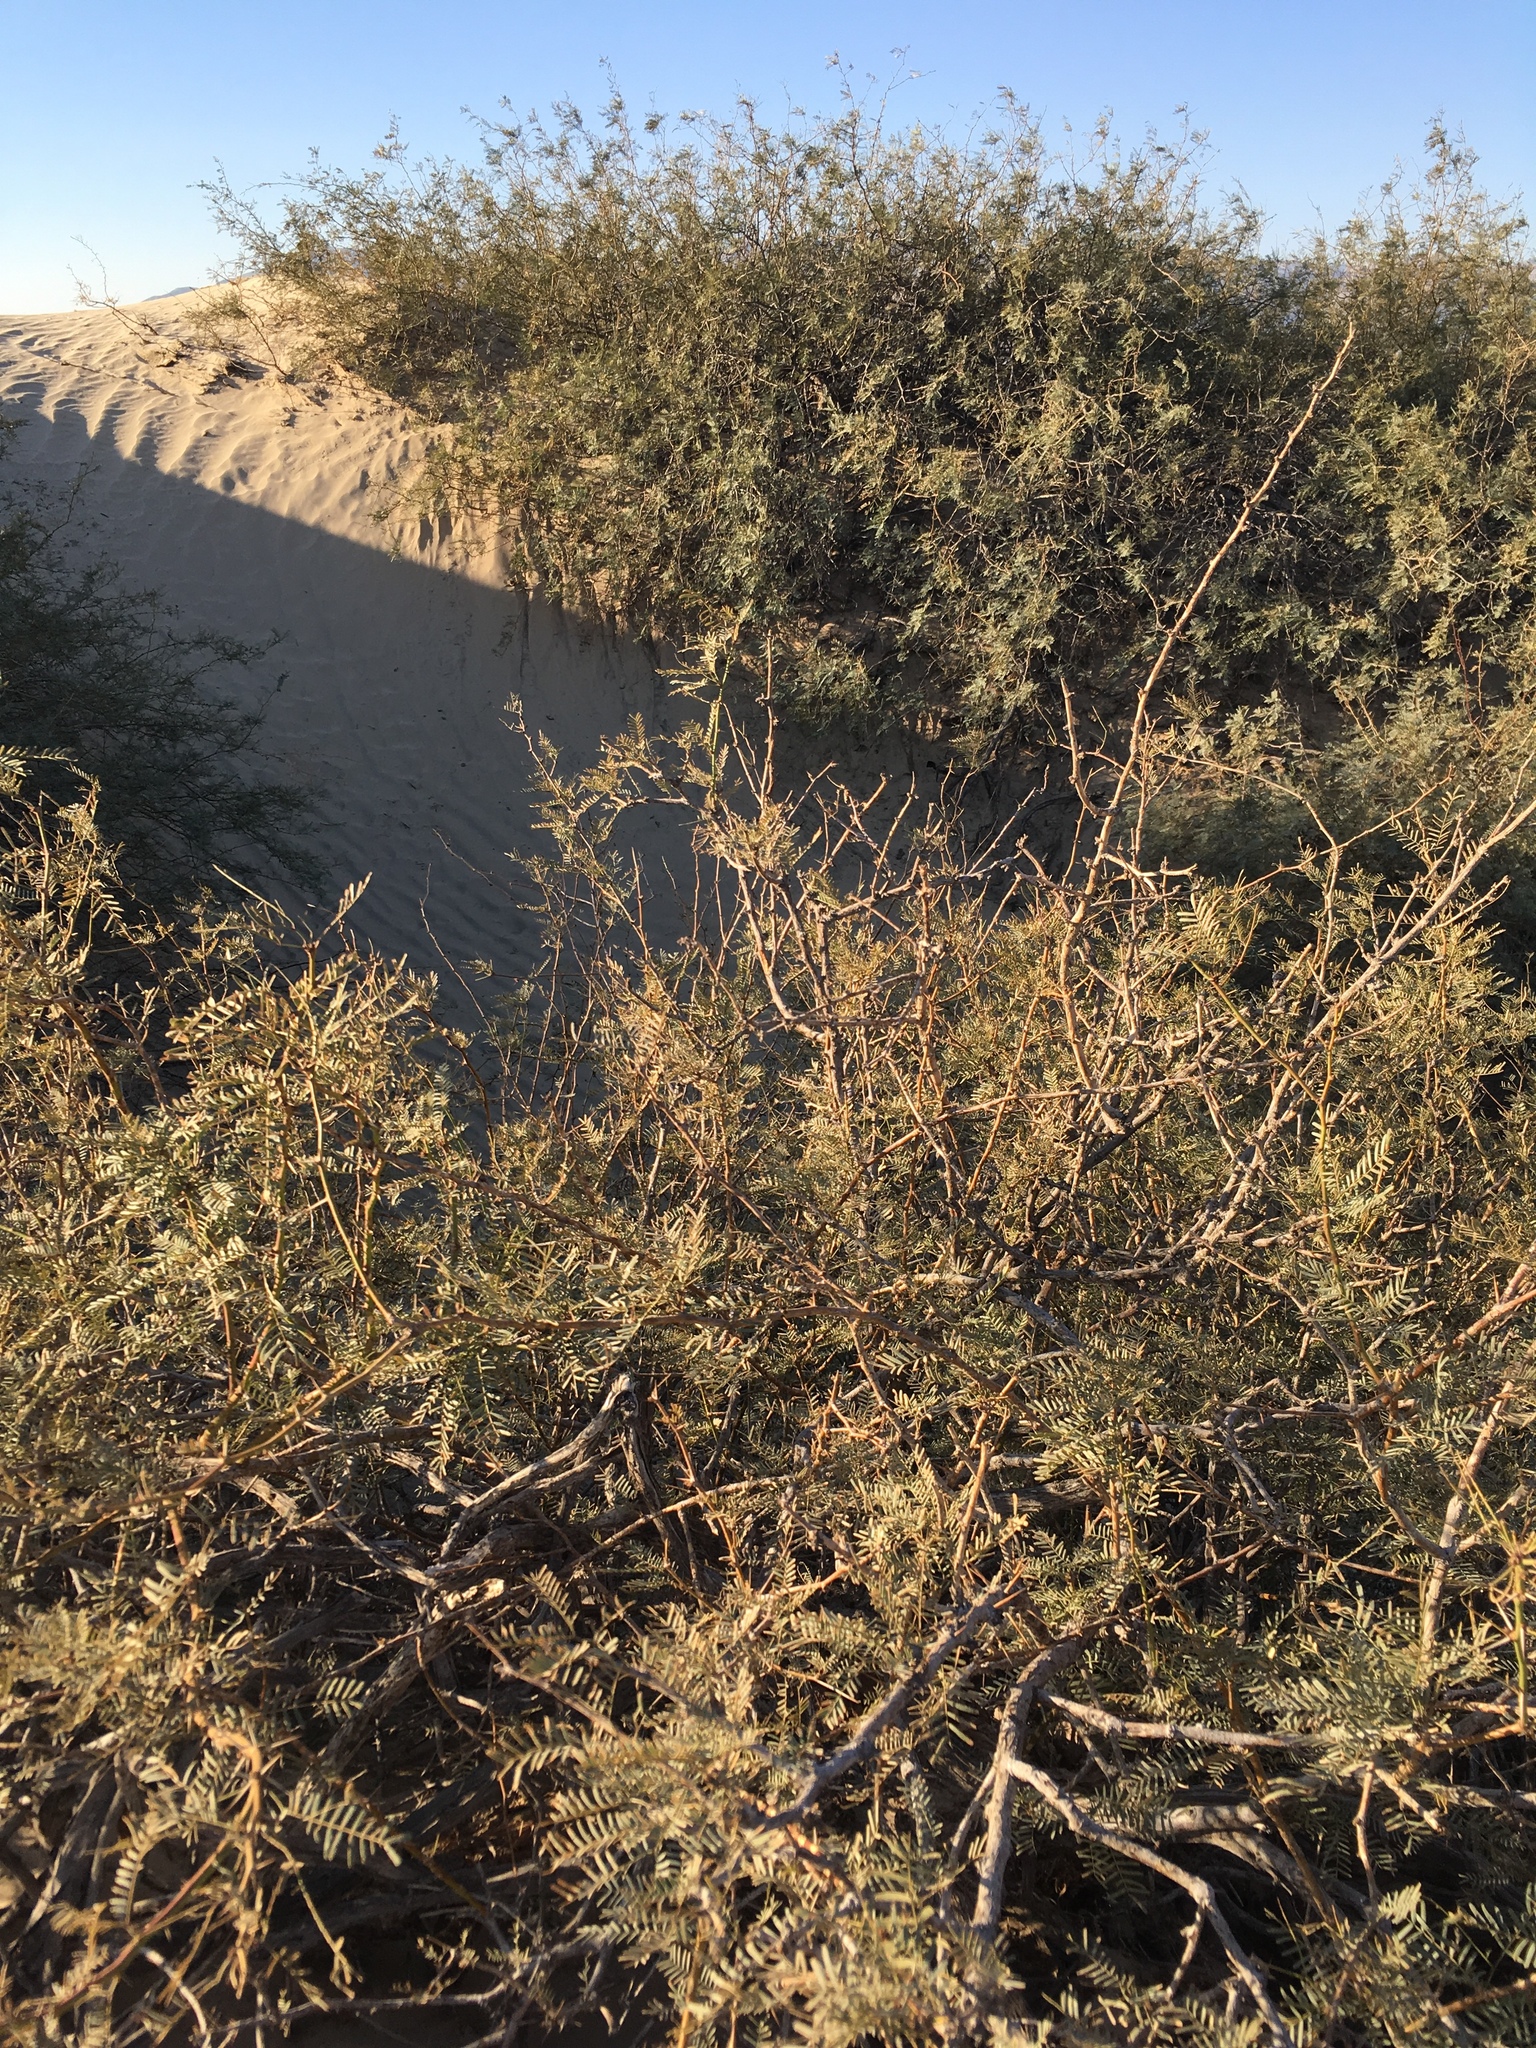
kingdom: Plantae
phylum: Tracheophyta
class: Magnoliopsida
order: Fabales
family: Fabaceae
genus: Prosopis
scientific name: Prosopis pubescens
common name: Screw-bean
